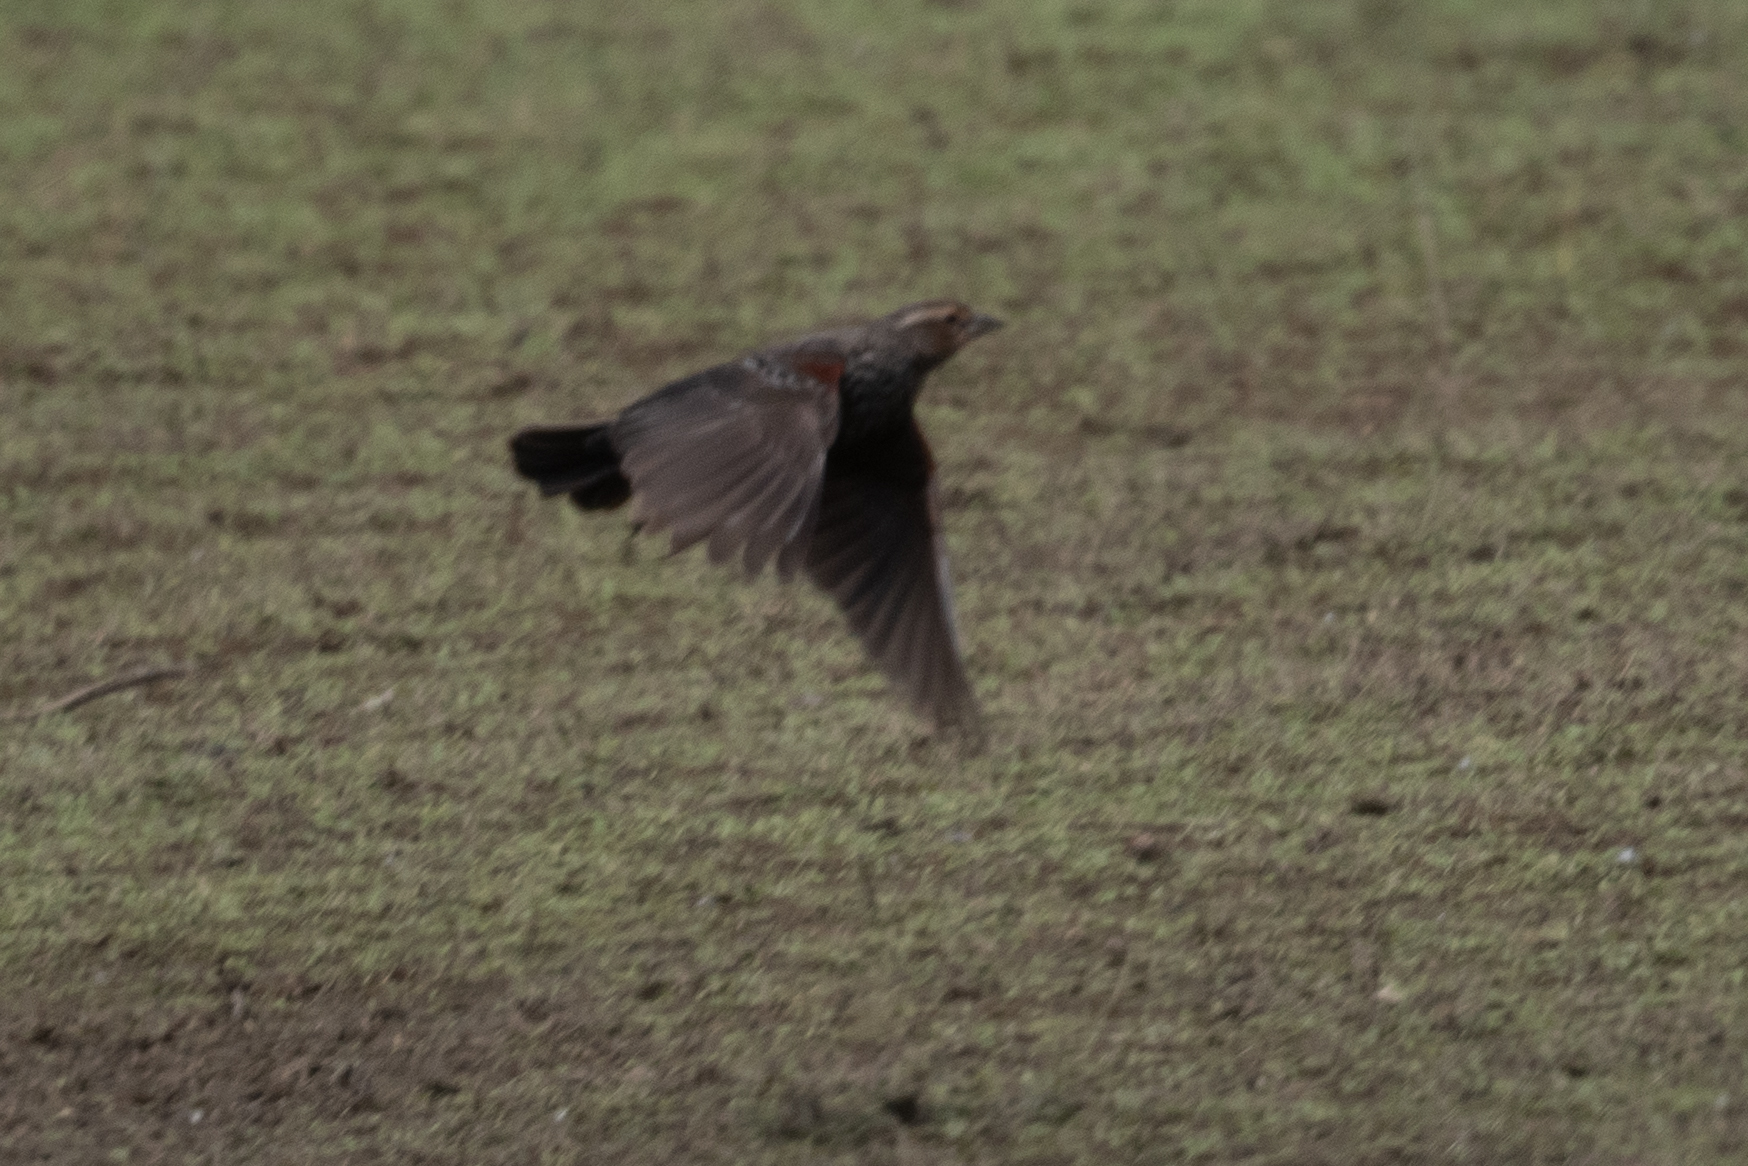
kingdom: Animalia
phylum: Chordata
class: Aves
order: Passeriformes
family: Icteridae
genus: Agelaius
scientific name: Agelaius phoeniceus
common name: Red-winged blackbird
